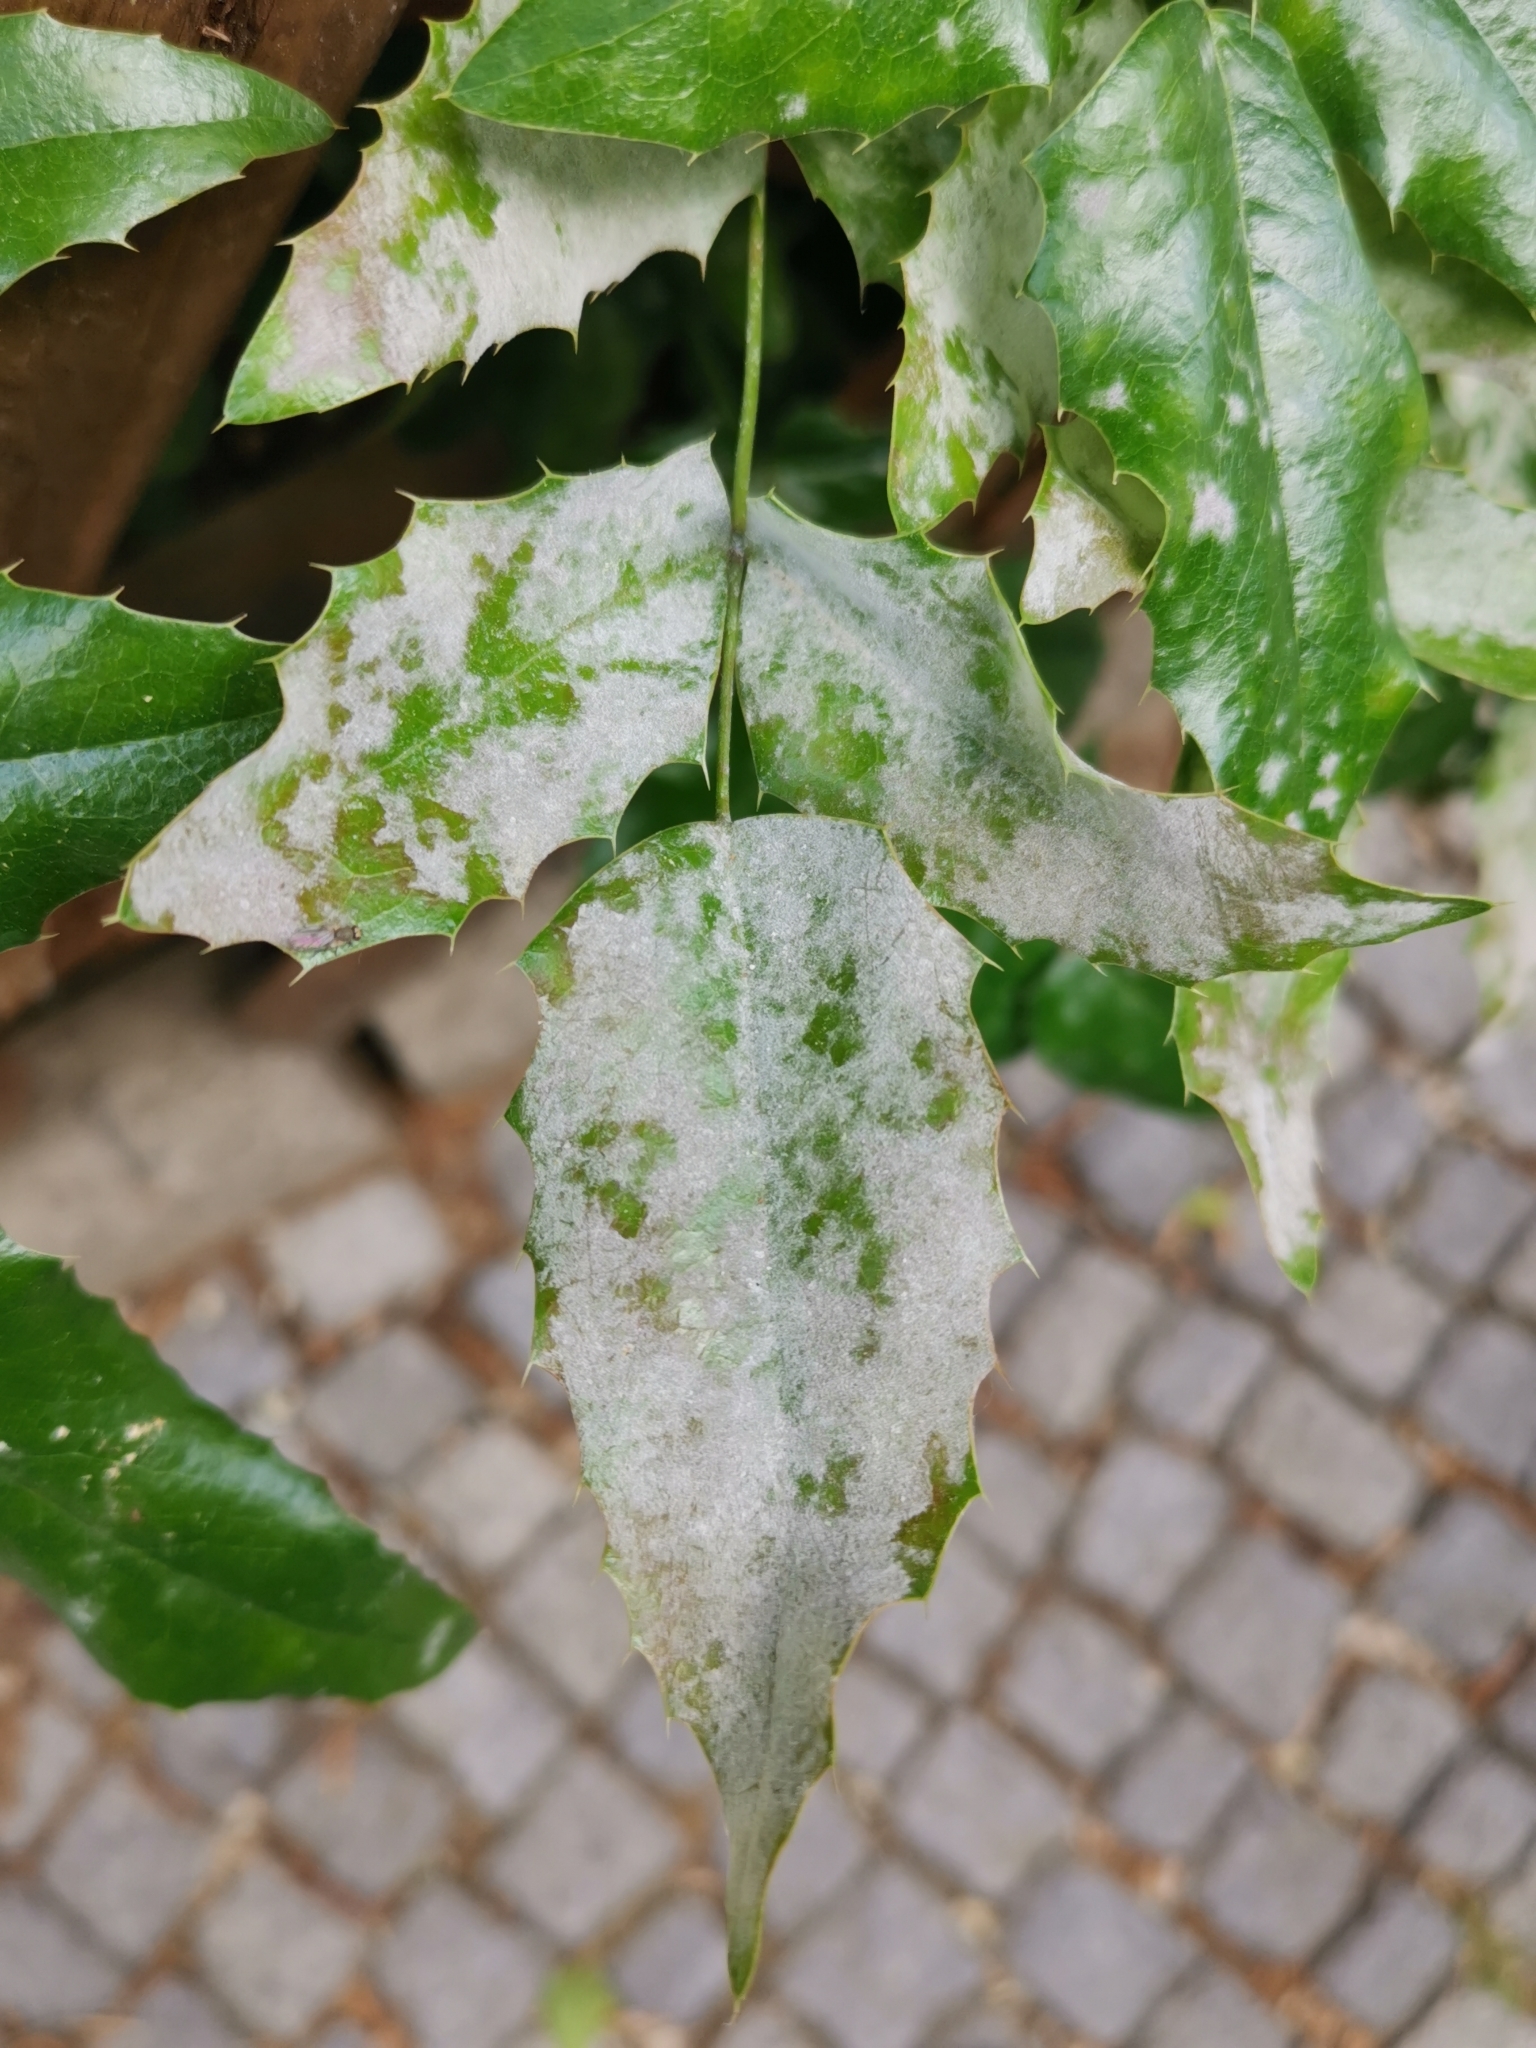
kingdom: Fungi
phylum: Ascomycota
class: Leotiomycetes
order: Helotiales
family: Erysiphaceae
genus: Erysiphe
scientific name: Erysiphe berberidis
